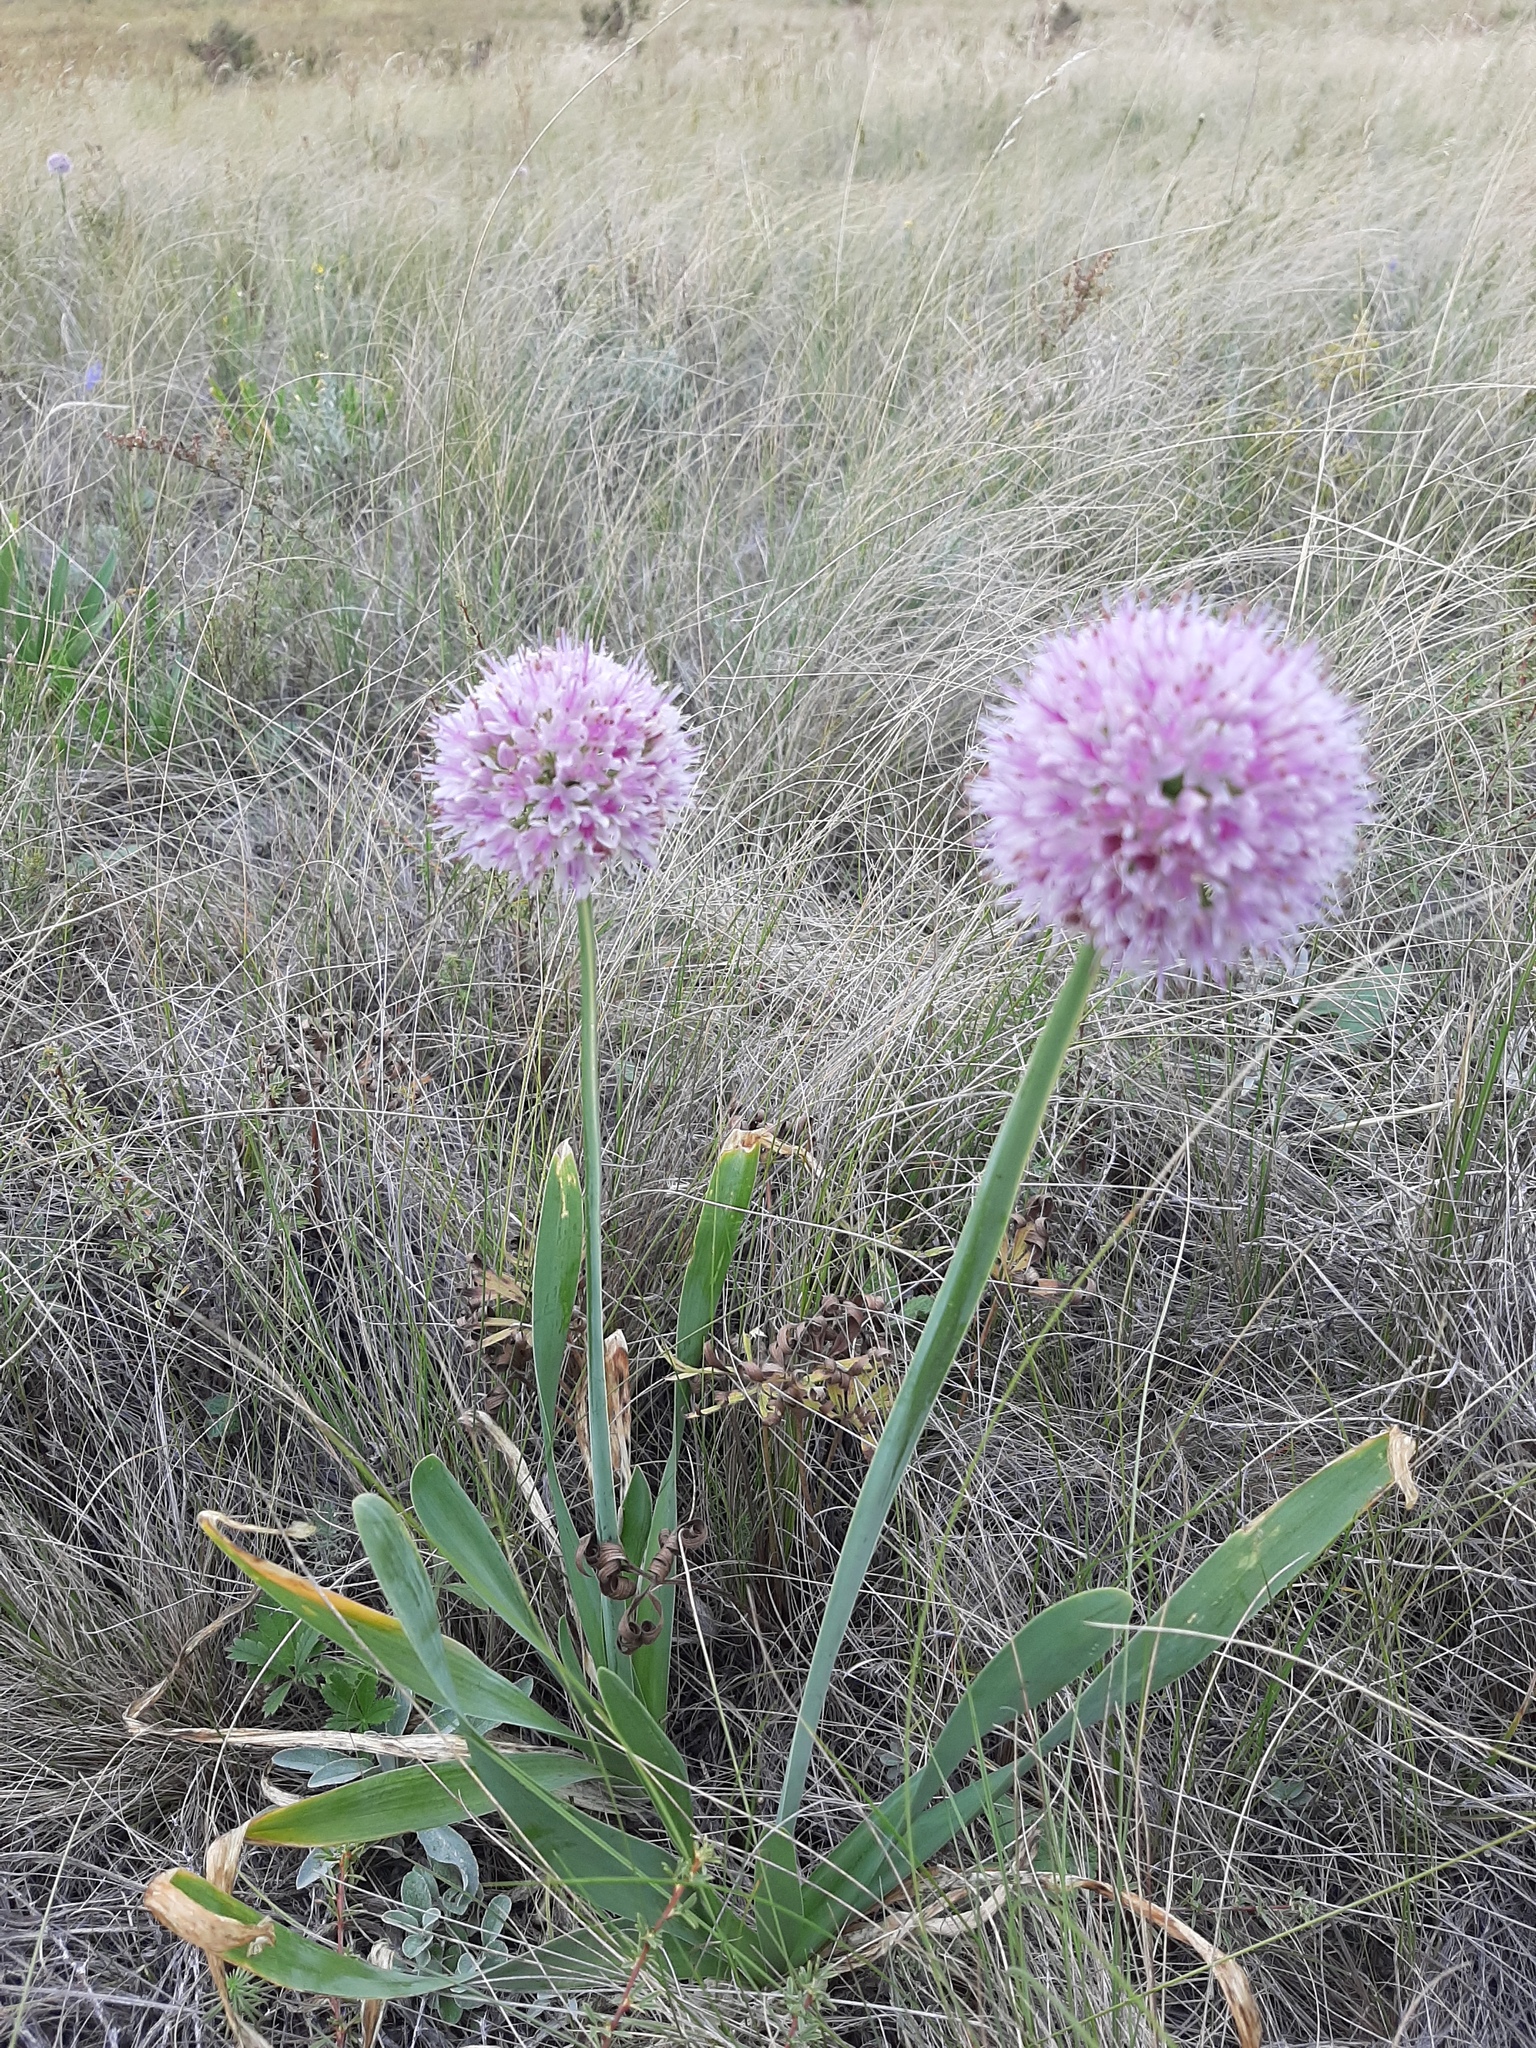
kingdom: Plantae
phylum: Tracheophyta
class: Liliopsida
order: Asparagales
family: Amaryllidaceae
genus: Allium
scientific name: Allium nutans
